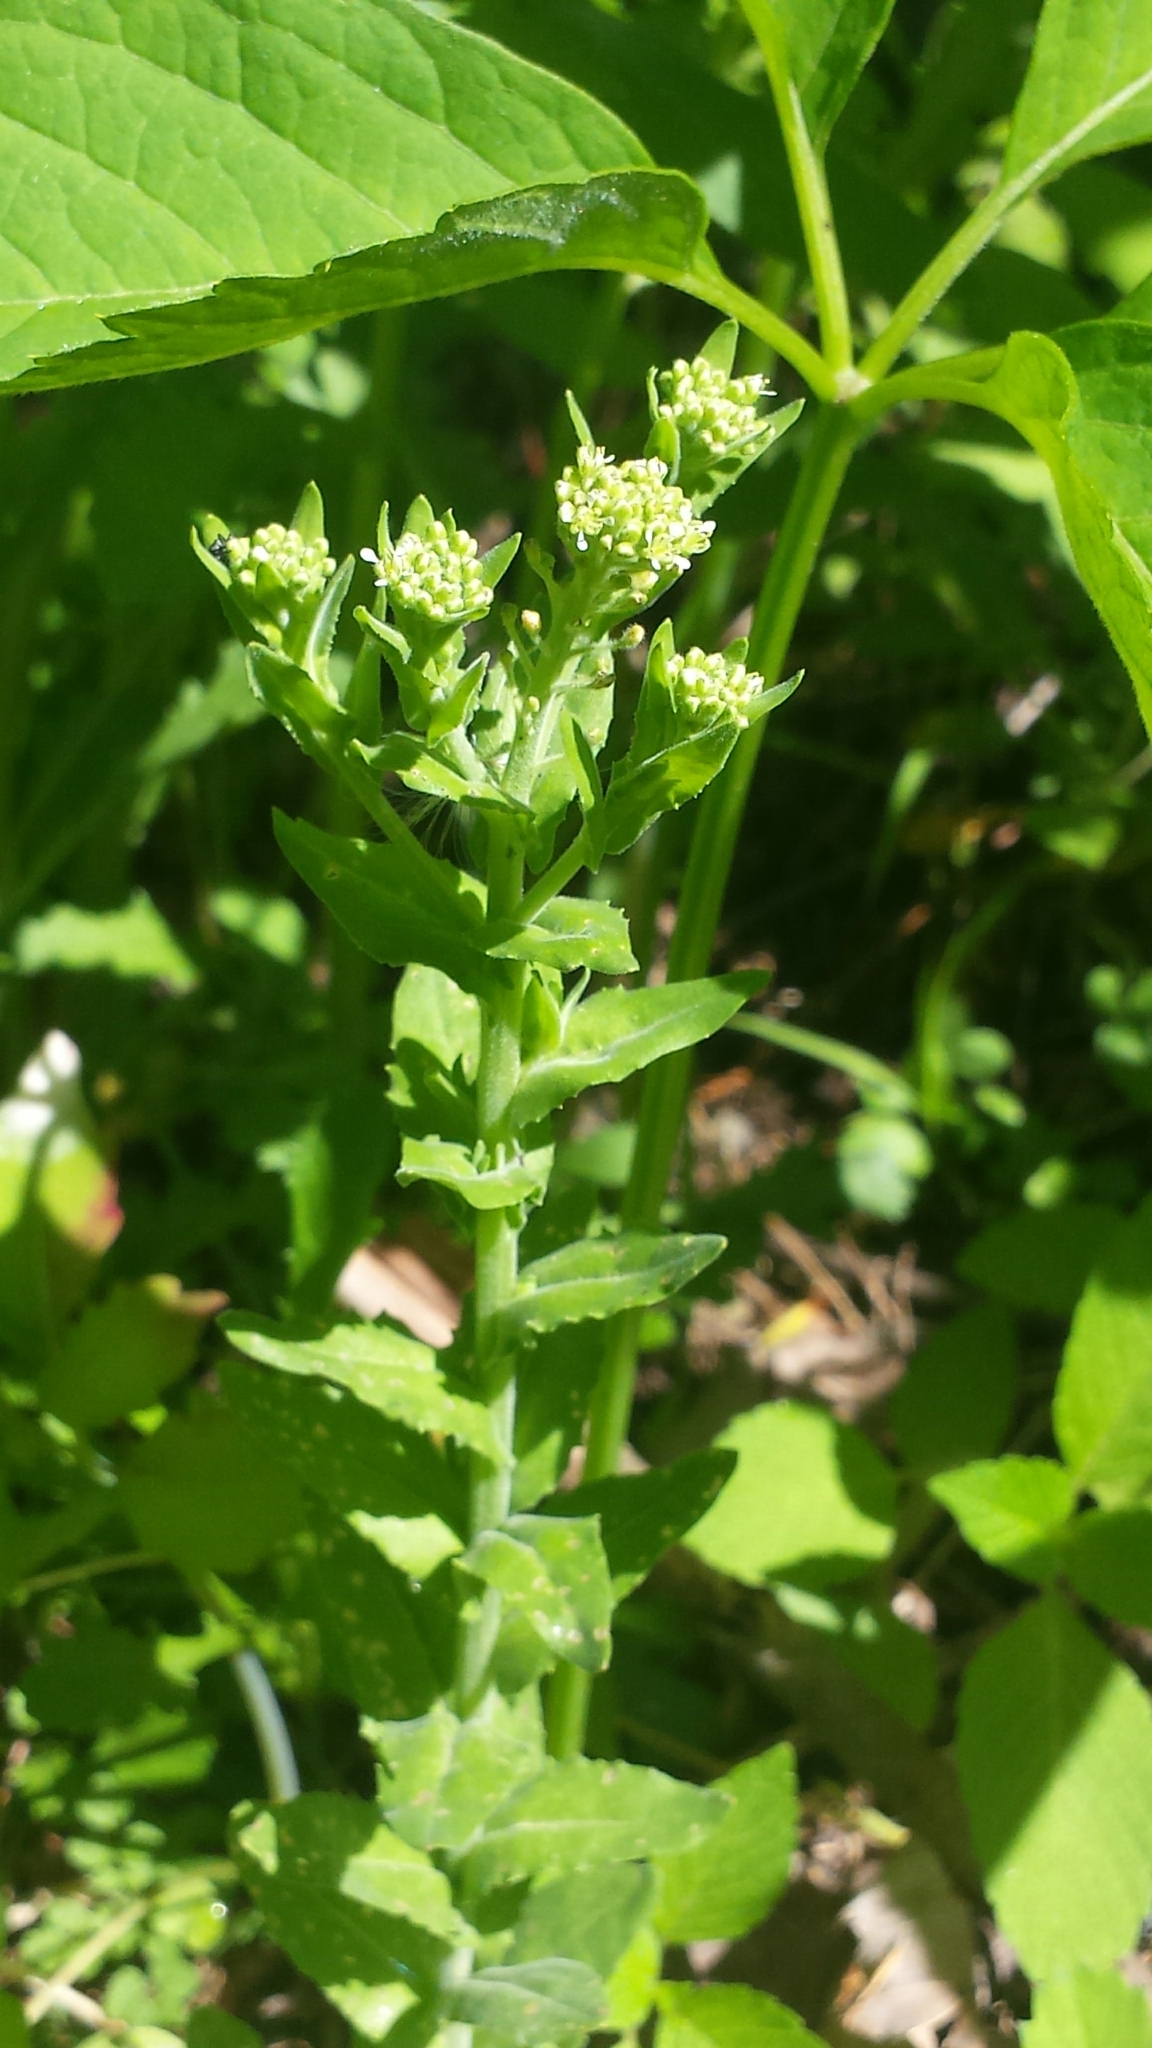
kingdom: Plantae
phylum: Tracheophyta
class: Magnoliopsida
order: Brassicales
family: Brassicaceae
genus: Lepidium
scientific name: Lepidium campestre
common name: Field pepperwort
